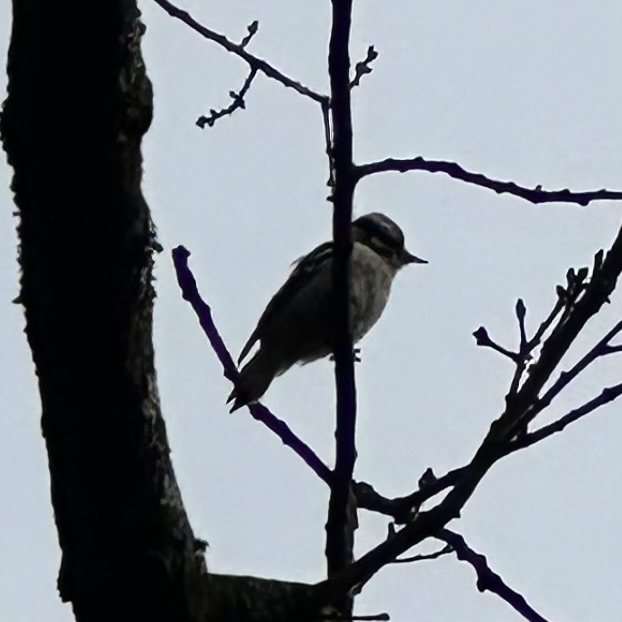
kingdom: Animalia
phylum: Chordata
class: Aves
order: Piciformes
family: Picidae
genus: Dryobates
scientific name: Dryobates pubescens
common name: Downy woodpecker
